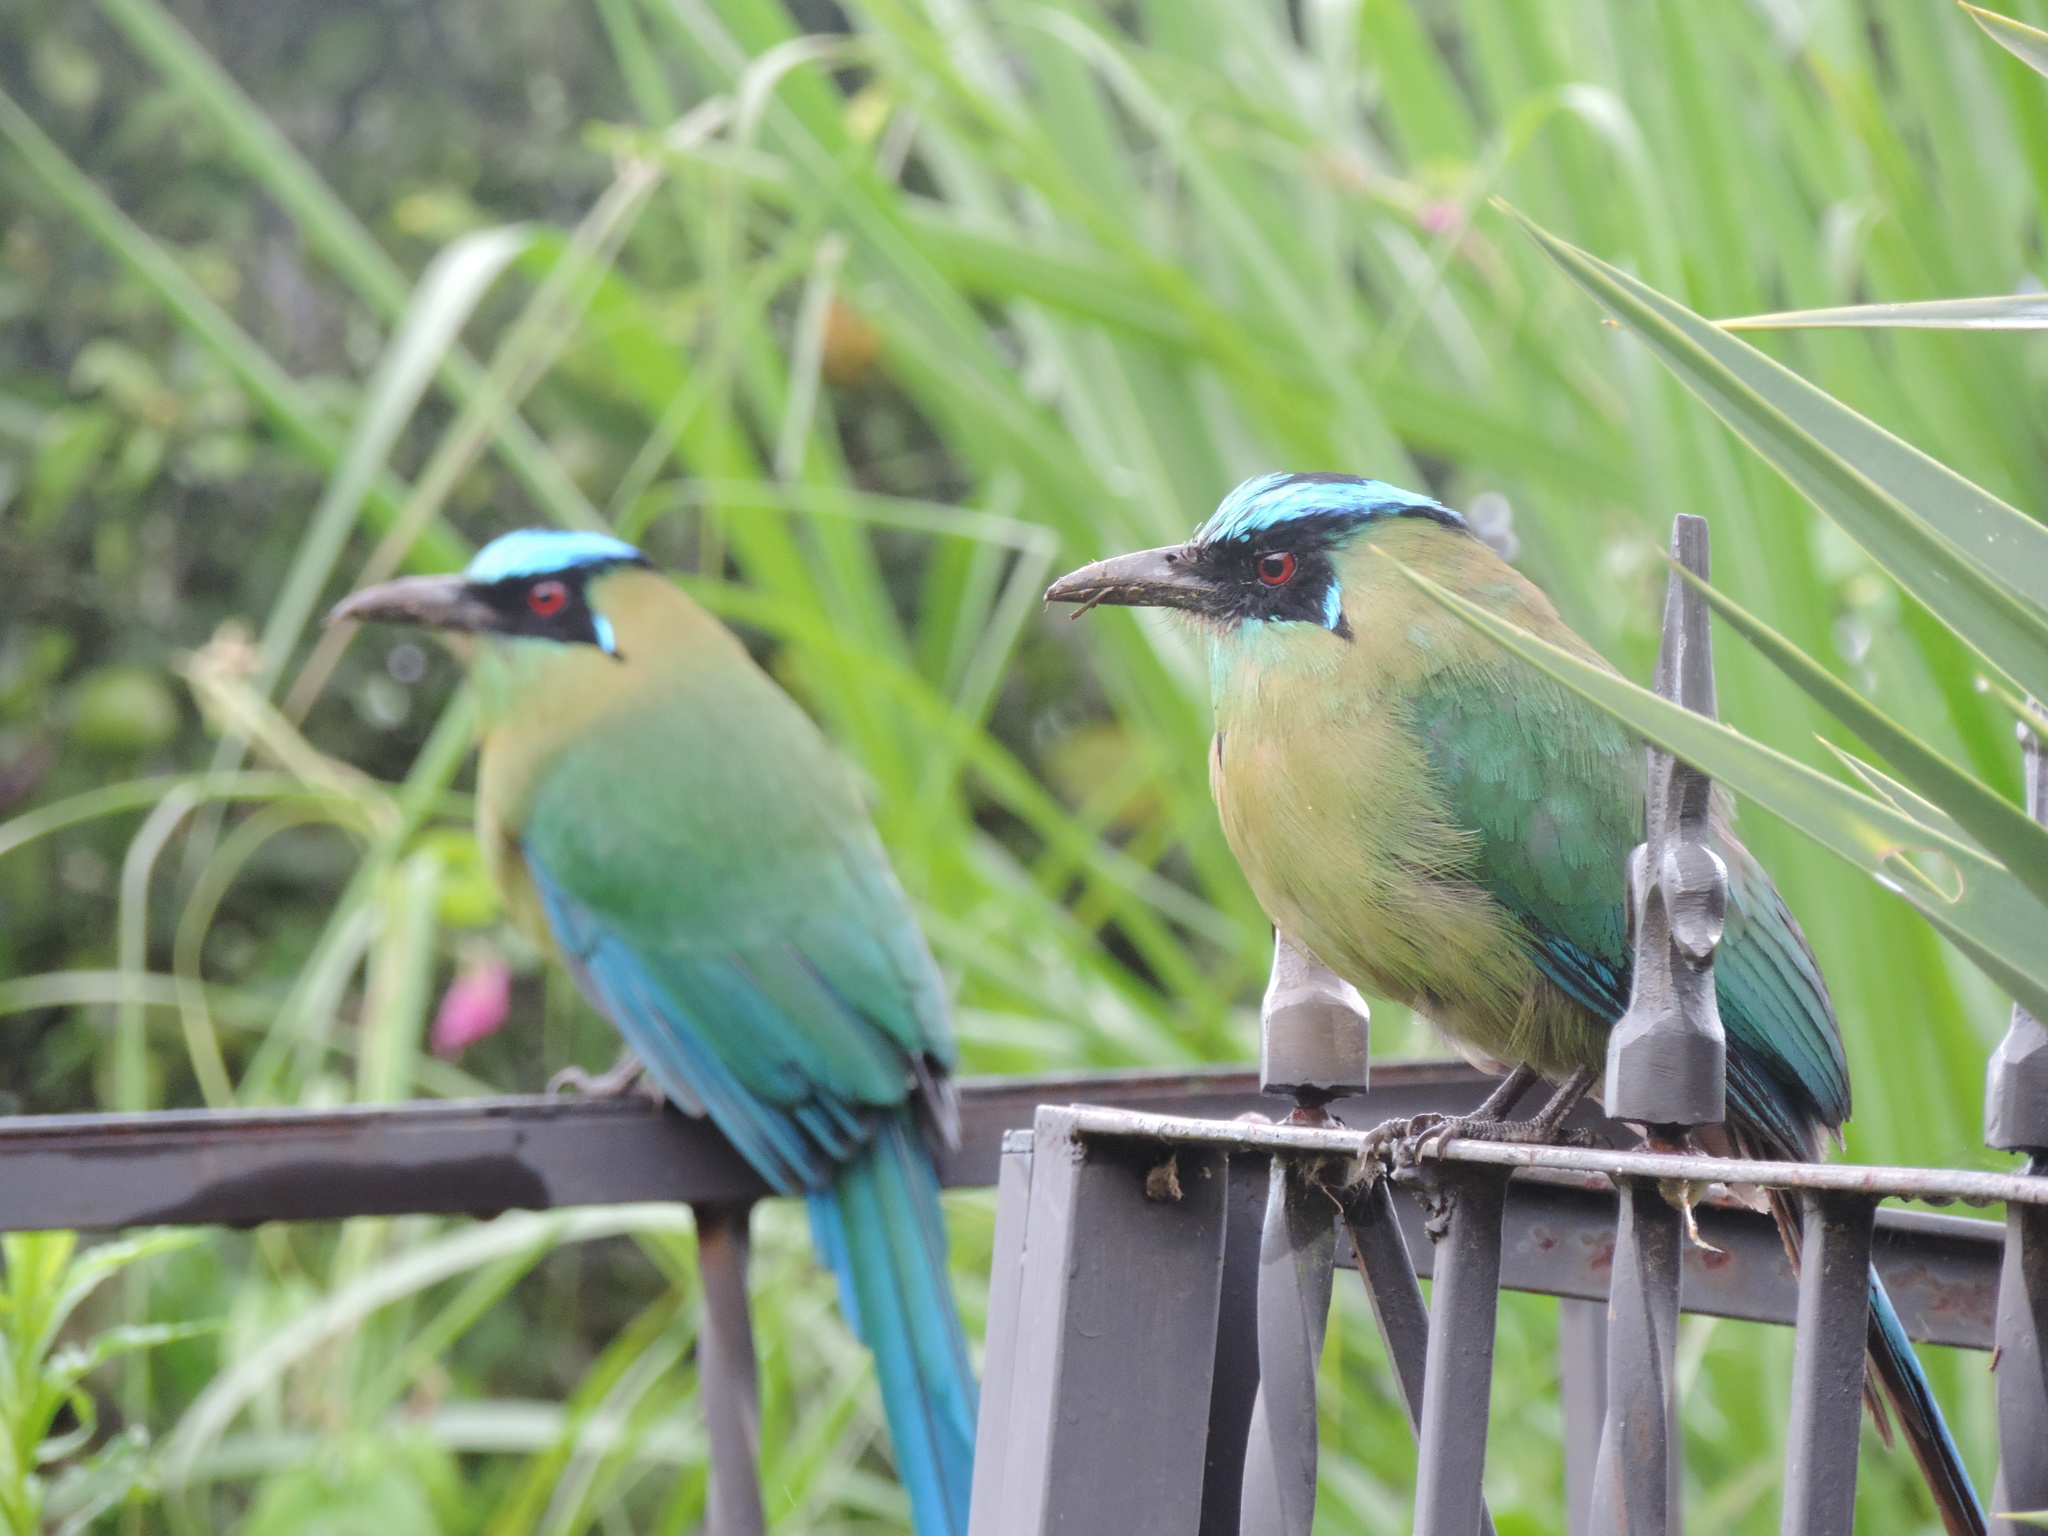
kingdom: Animalia
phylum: Chordata
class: Aves
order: Coraciiformes
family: Momotidae
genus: Momotus
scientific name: Momotus aequatorialis
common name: Andean motmot
